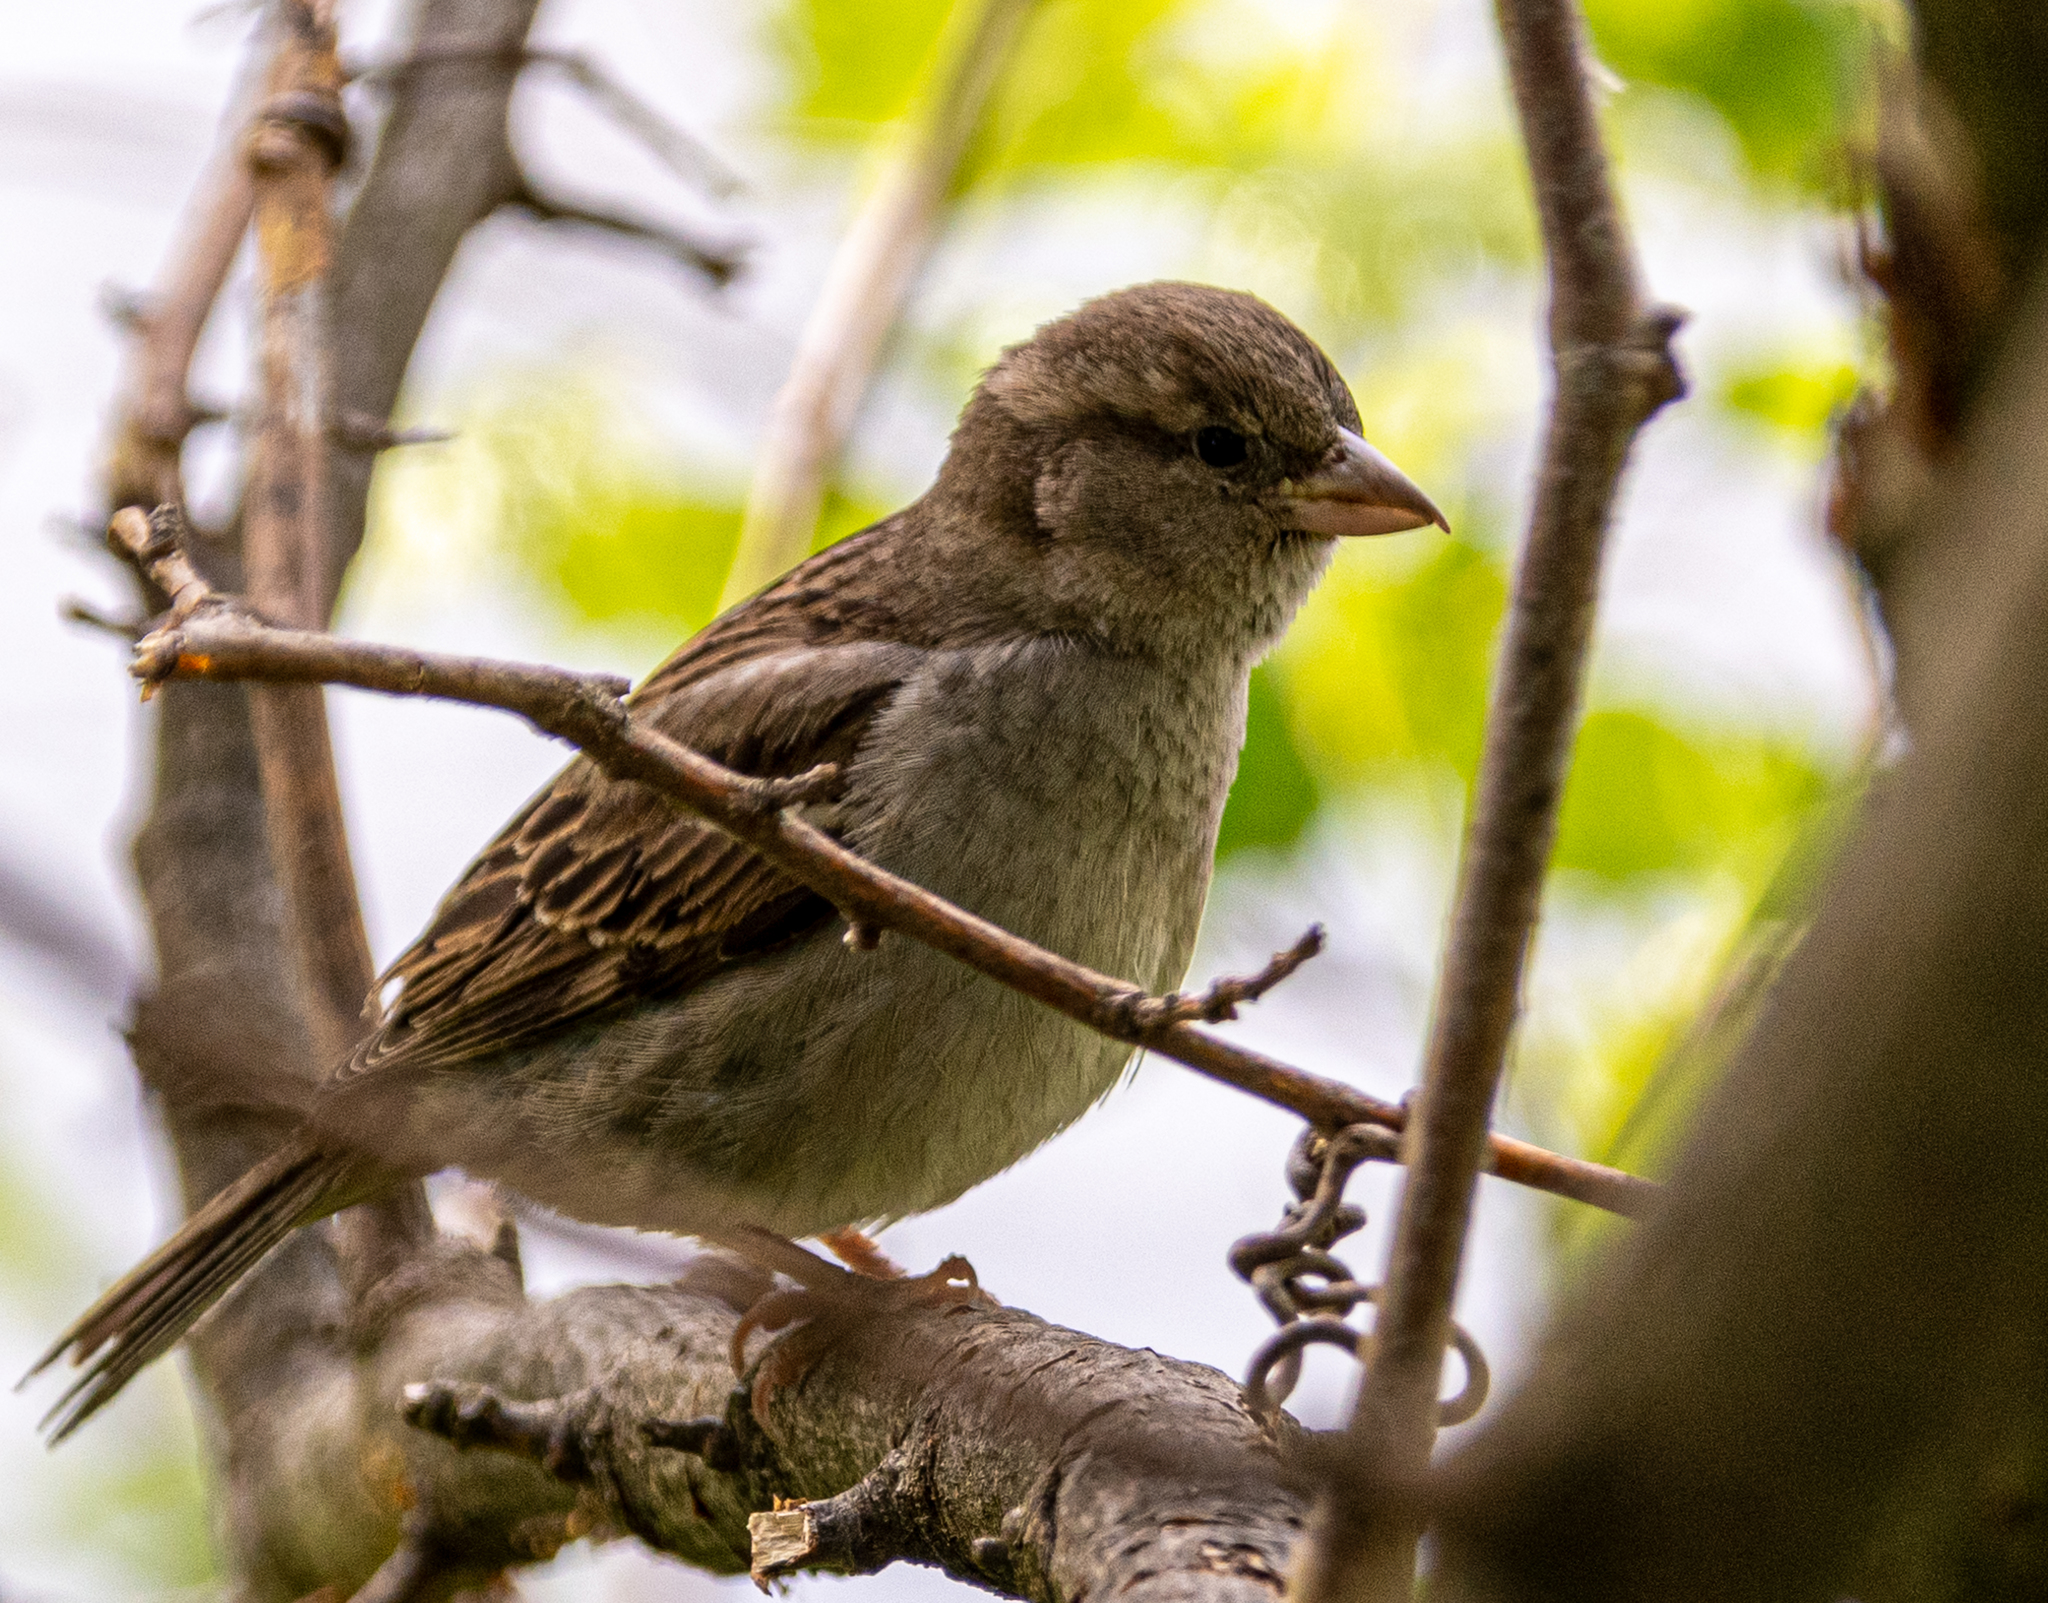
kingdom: Animalia
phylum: Chordata
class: Aves
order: Passeriformes
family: Passeridae
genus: Passer
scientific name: Passer domesticus
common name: House sparrow
